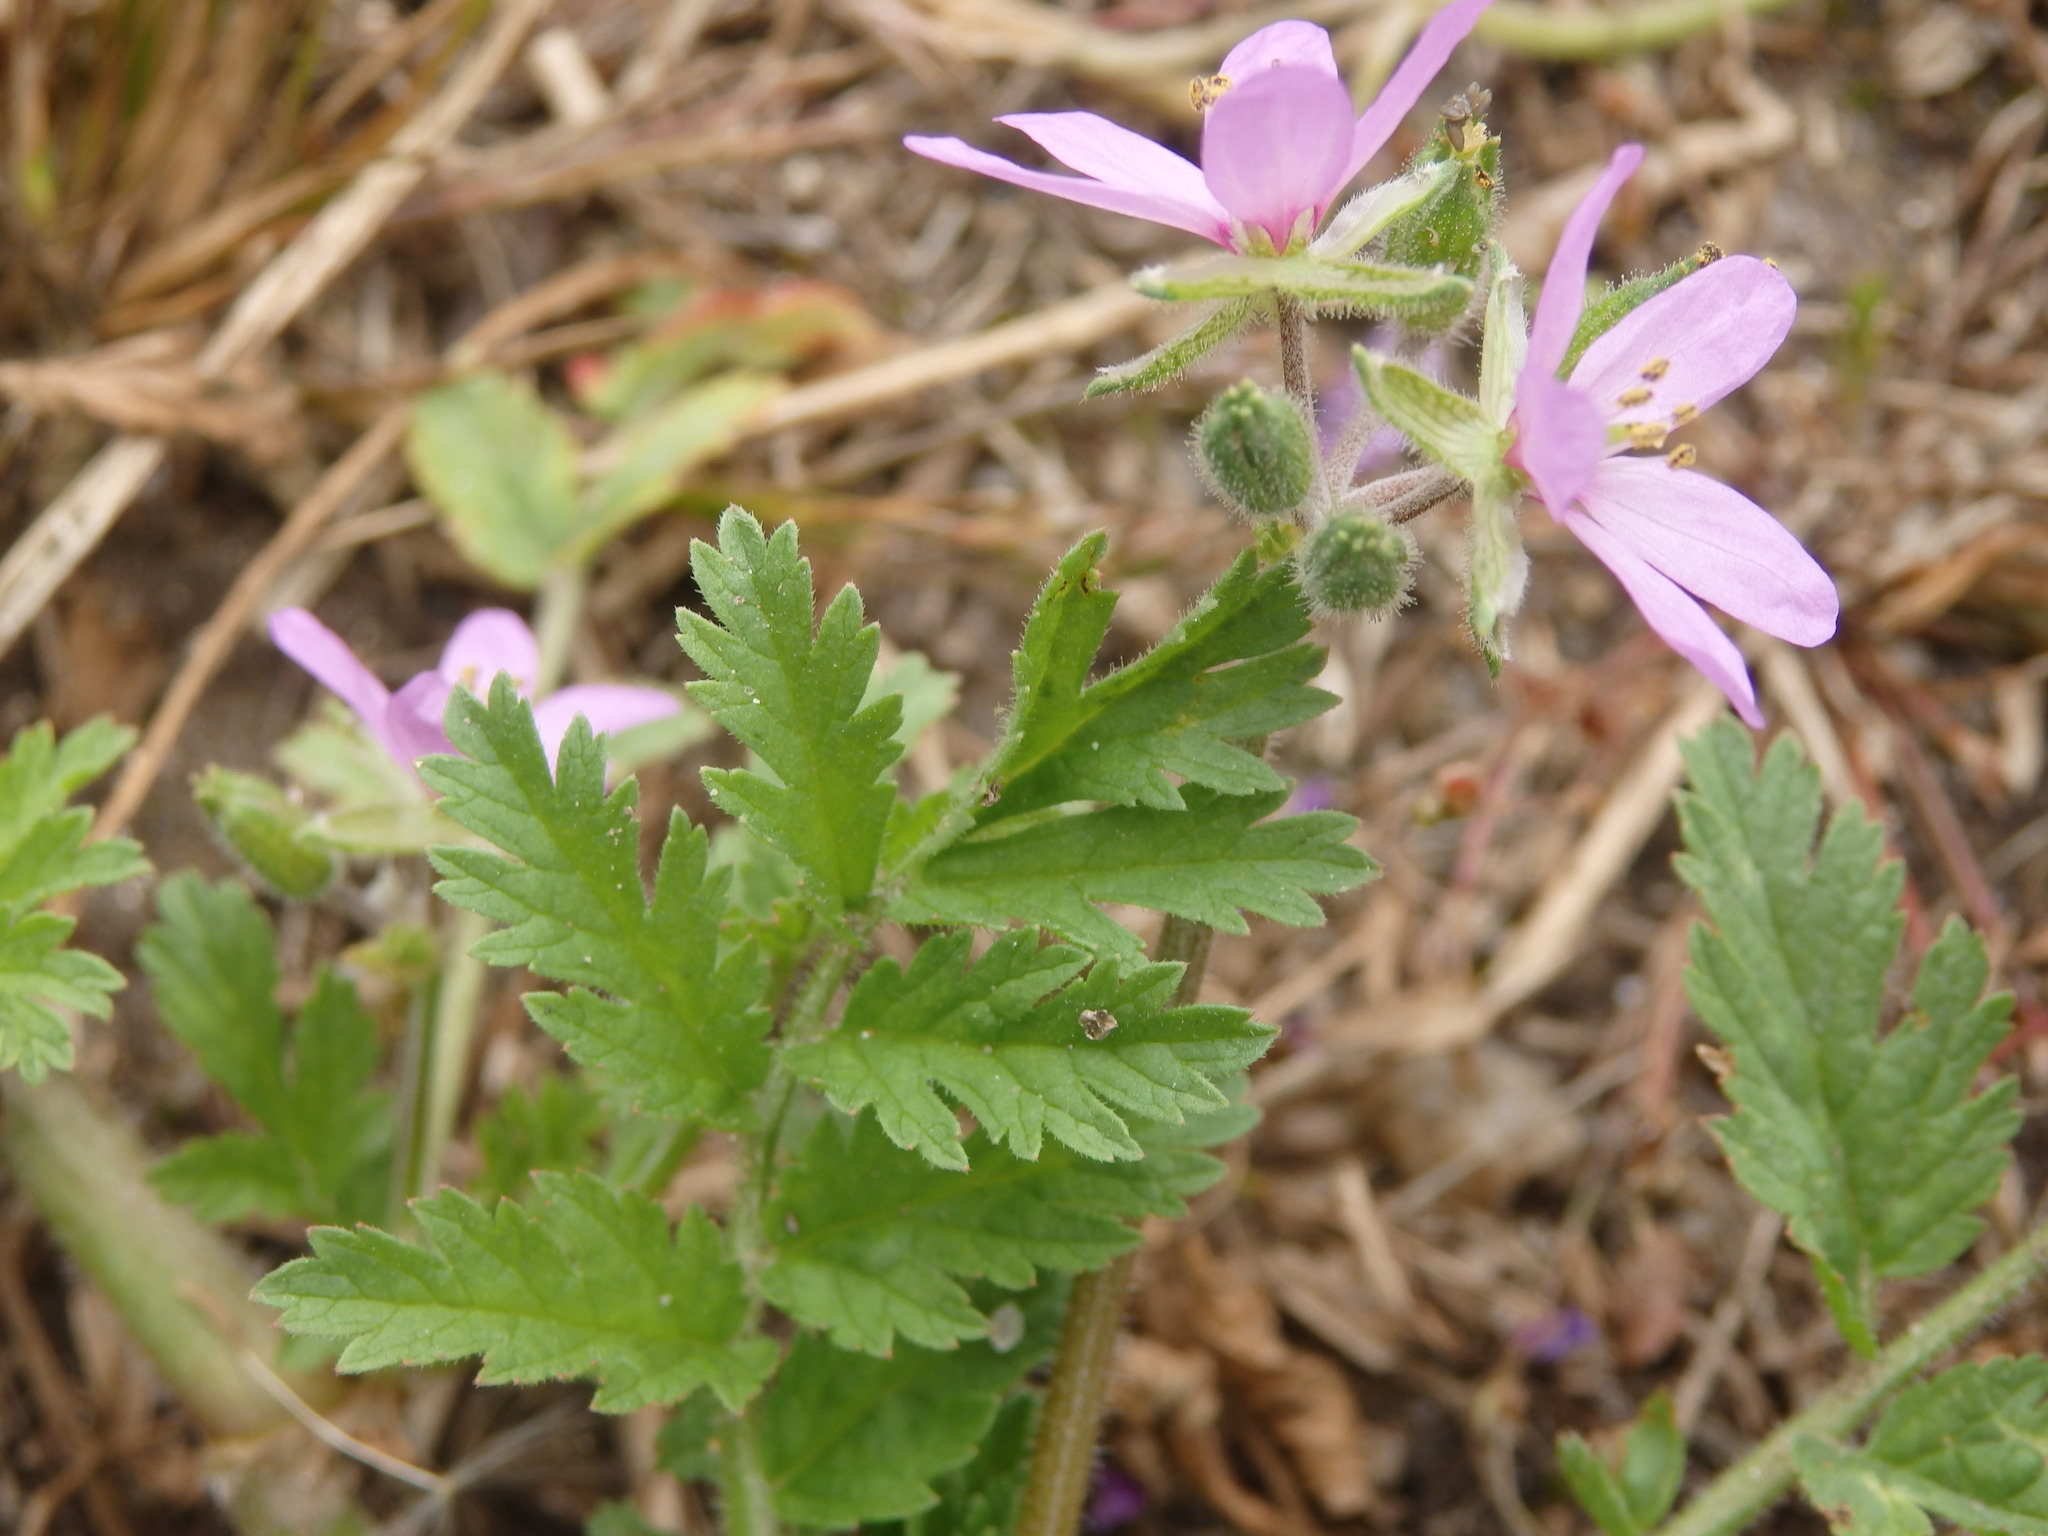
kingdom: Plantae
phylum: Tracheophyta
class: Magnoliopsida
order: Geraniales
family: Geraniaceae
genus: Erodium
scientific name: Erodium moschatum
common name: Musk stork's-bill
